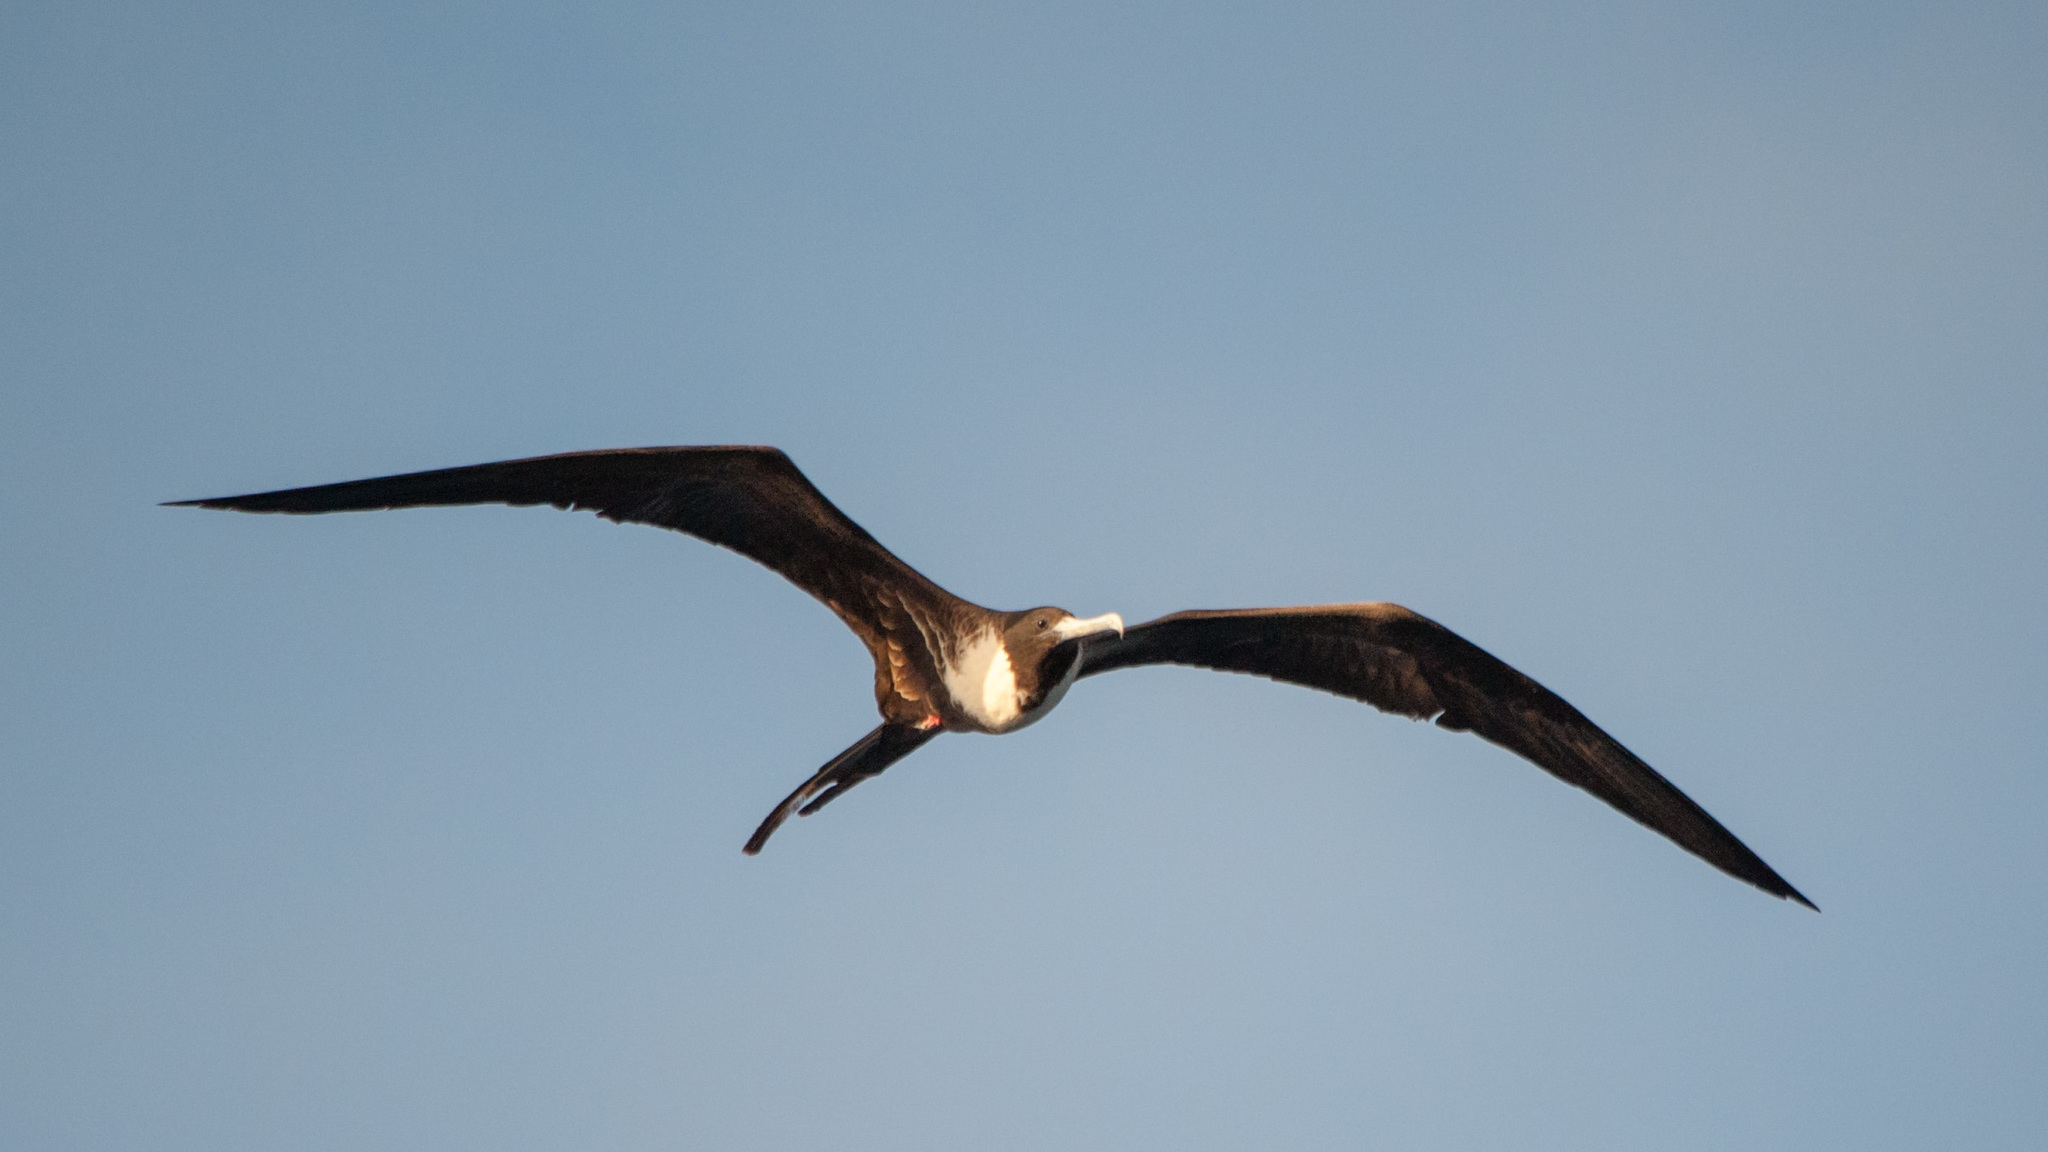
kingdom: Animalia
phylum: Chordata
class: Aves
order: Suliformes
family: Fregatidae
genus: Fregata
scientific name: Fregata magnificens
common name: Magnificent frigatebird
